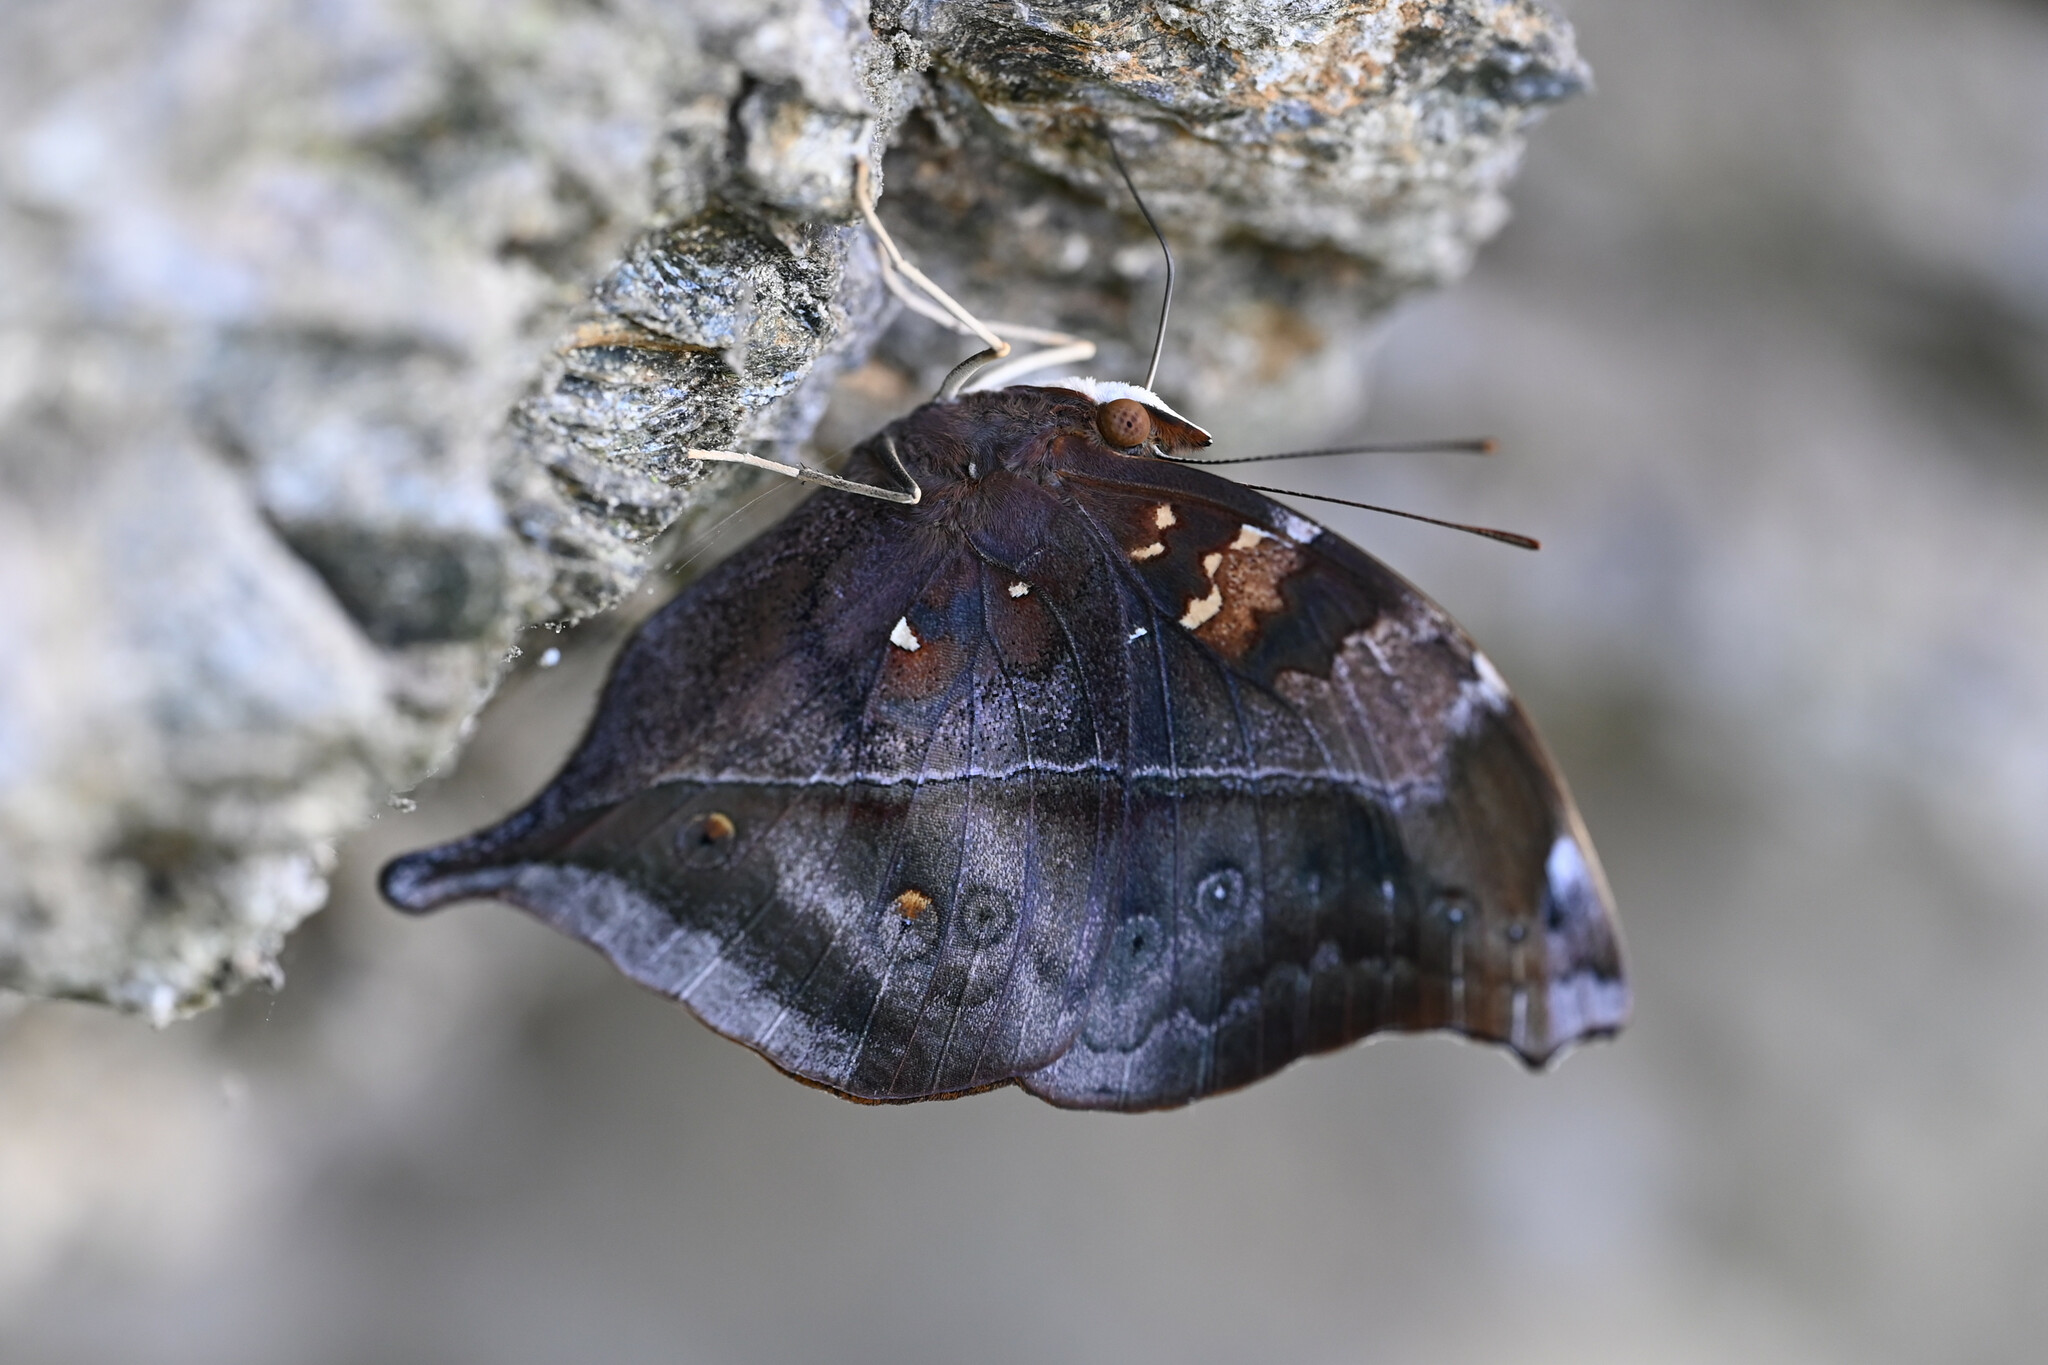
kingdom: Animalia
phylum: Arthropoda
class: Insecta
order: Lepidoptera
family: Nymphalidae
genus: Doleschallia
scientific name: Doleschallia bisaltide
